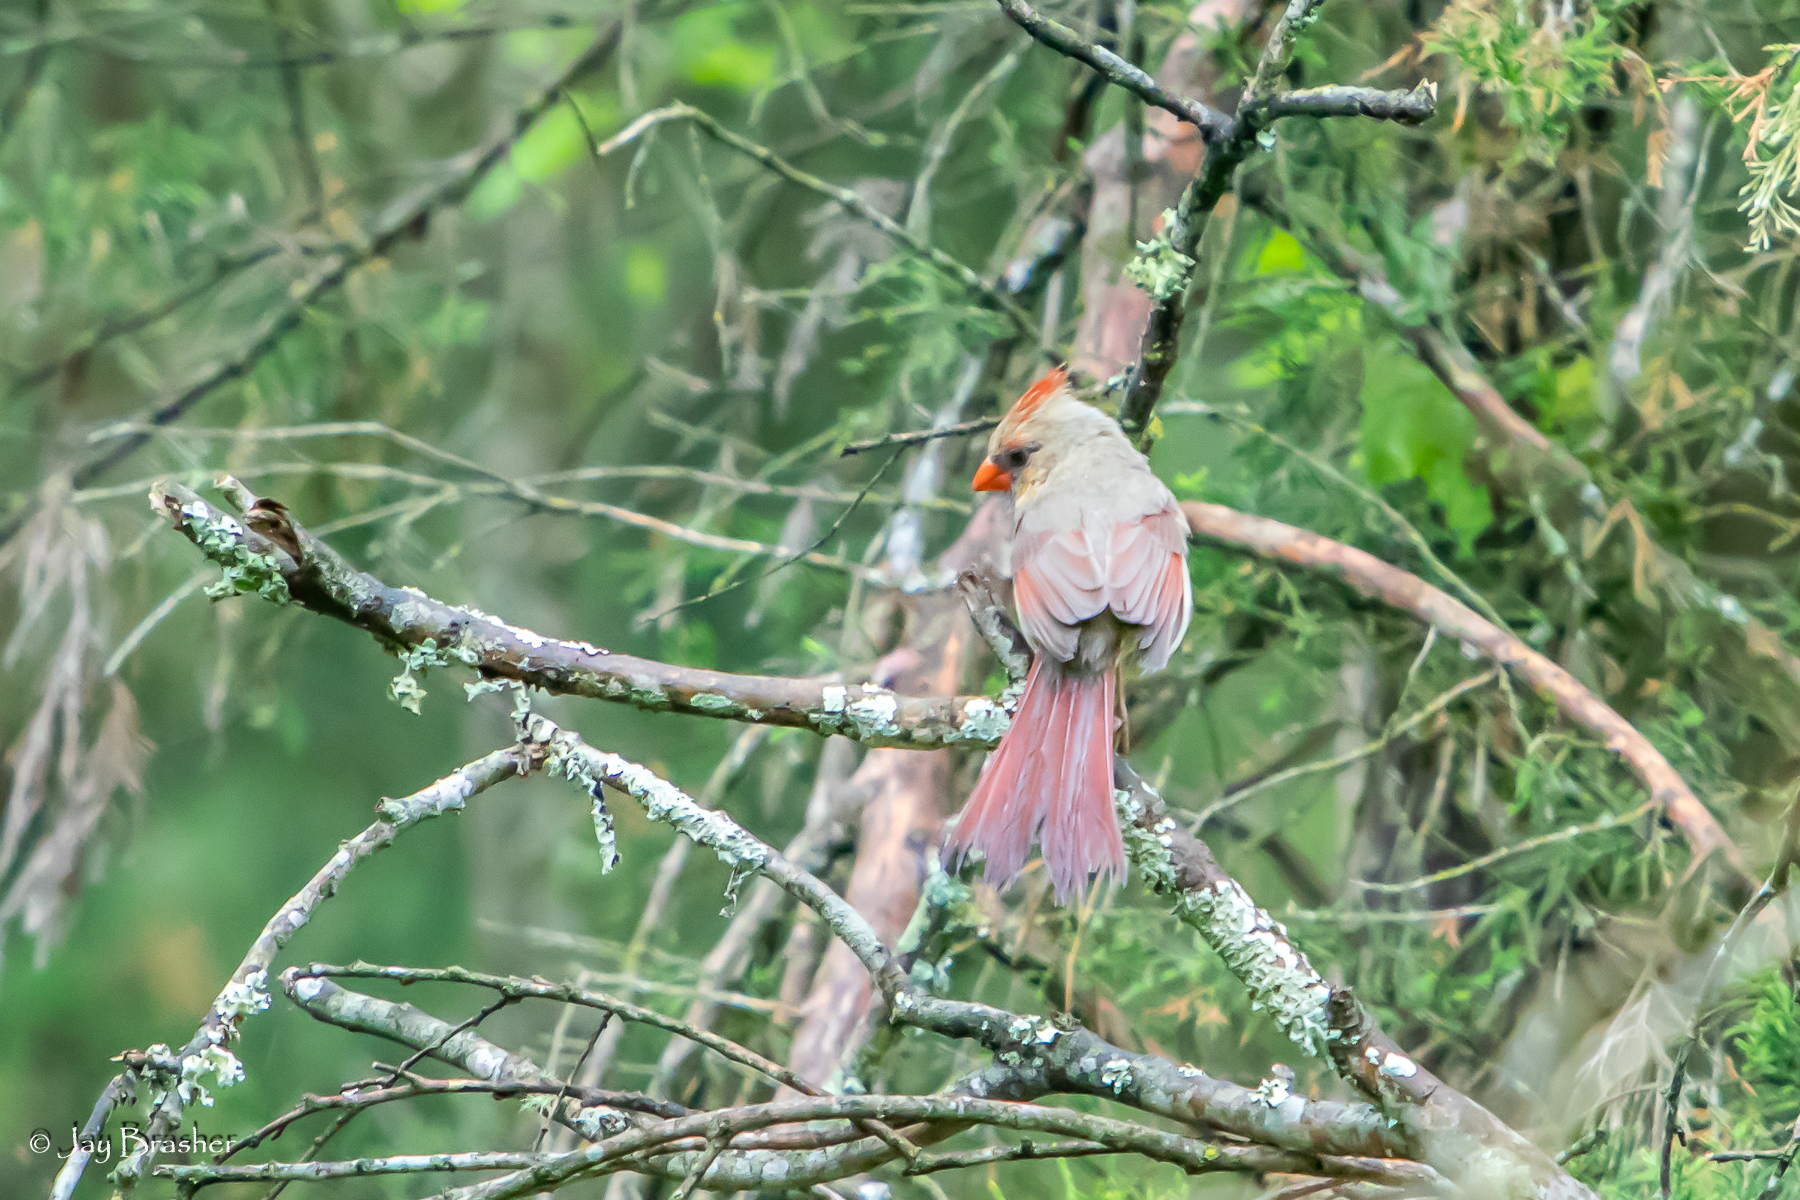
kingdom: Animalia
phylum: Chordata
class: Aves
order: Passeriformes
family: Cardinalidae
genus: Cardinalis
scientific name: Cardinalis cardinalis
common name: Northern cardinal
